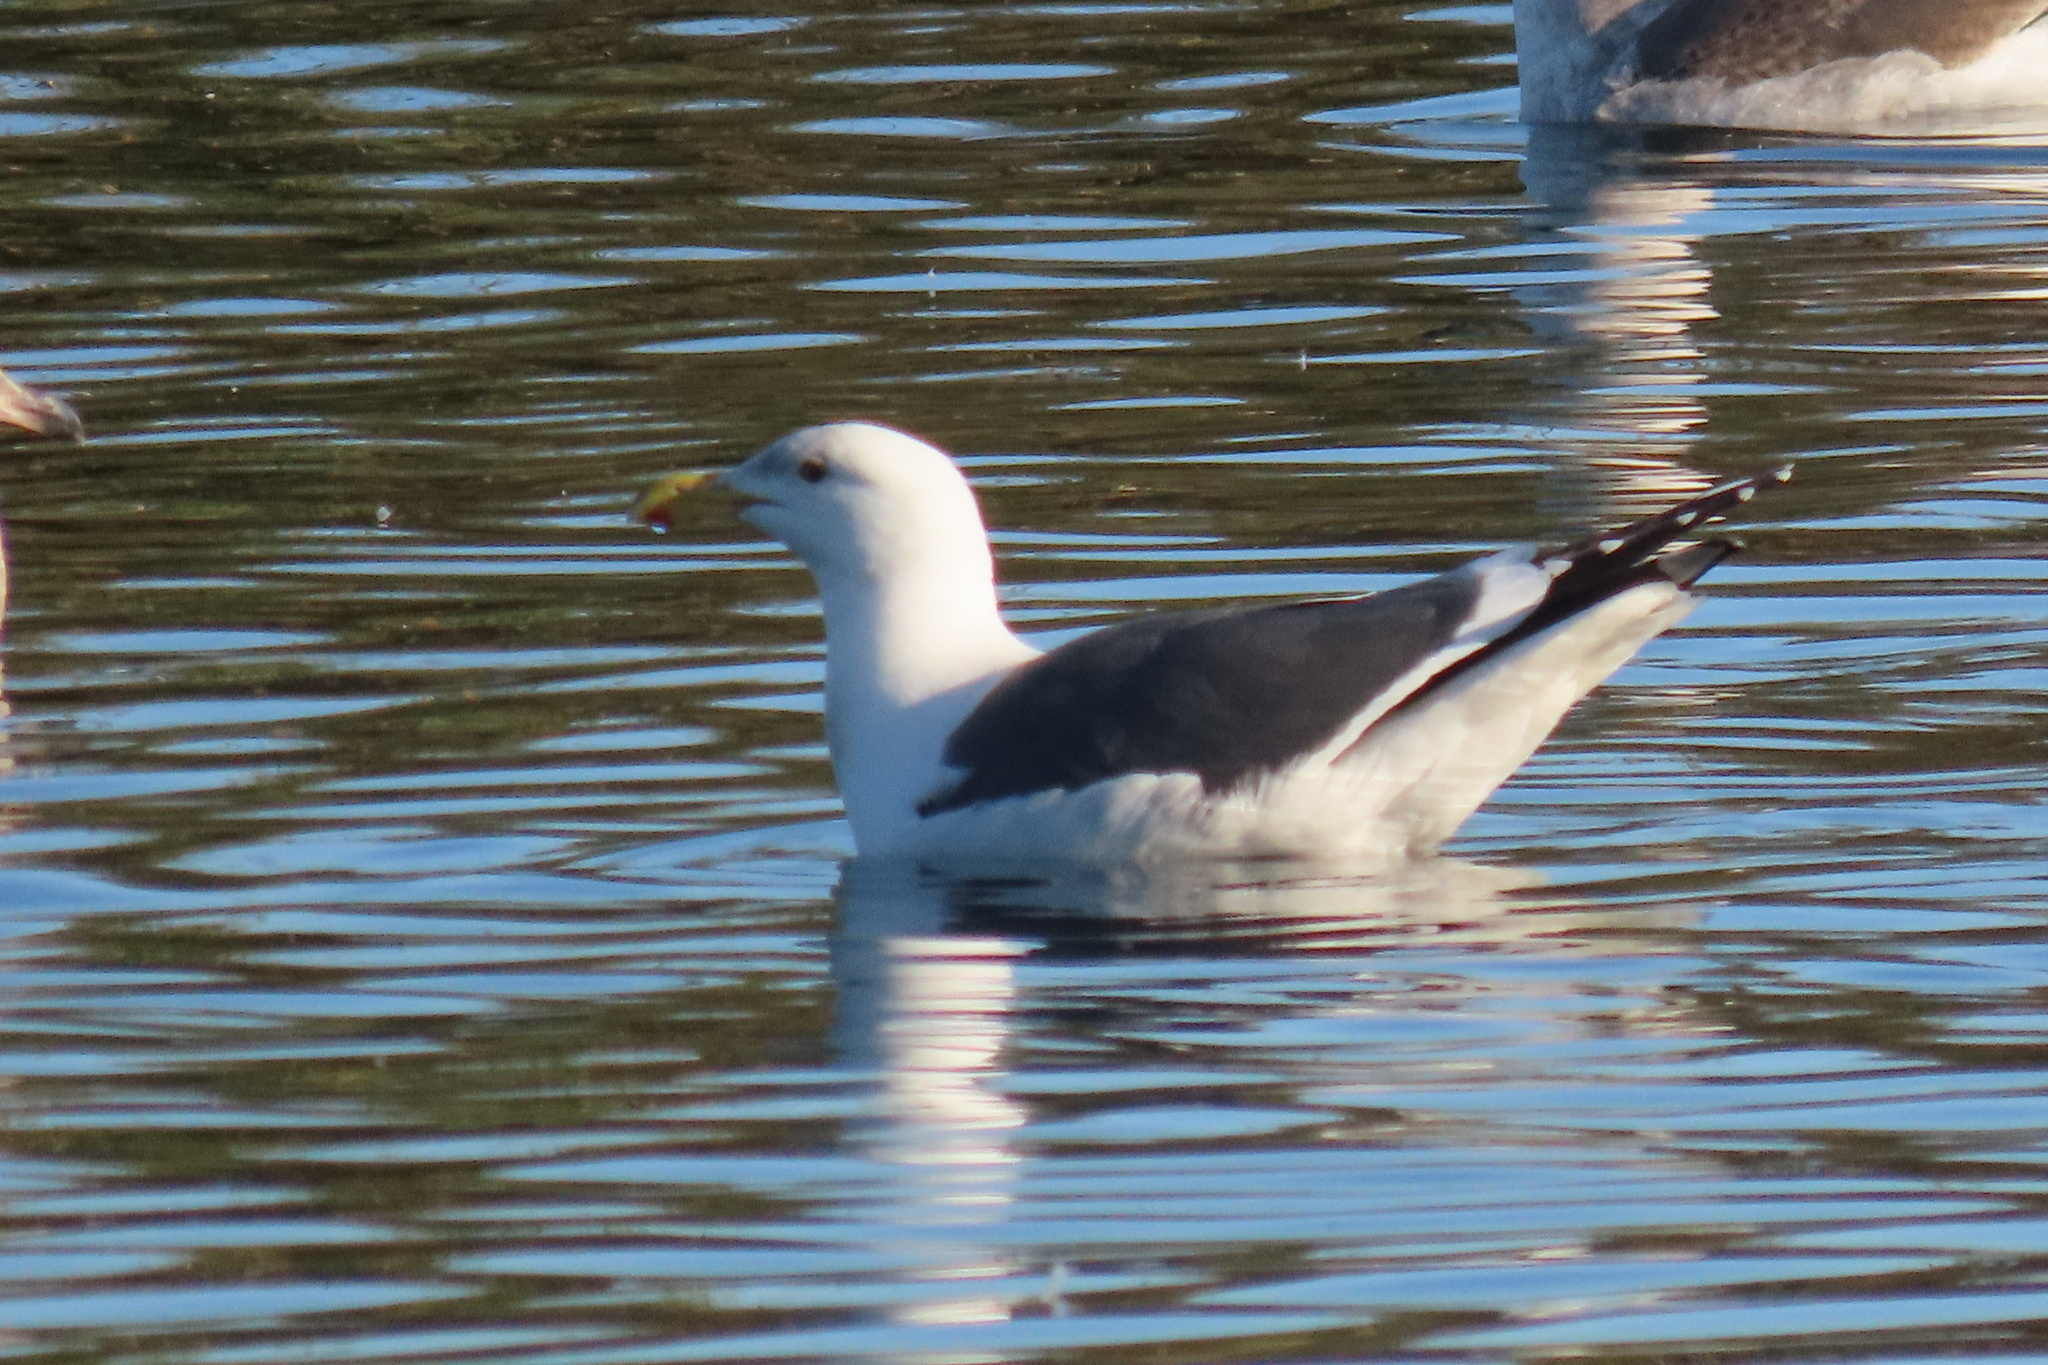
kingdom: Animalia
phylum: Chordata
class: Aves
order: Charadriiformes
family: Laridae
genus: Larus
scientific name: Larus occidentalis
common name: Western gull
